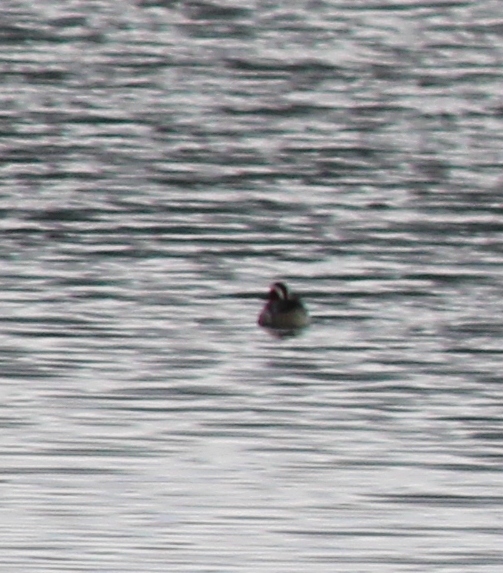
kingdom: Animalia
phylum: Chordata
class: Aves
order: Anseriformes
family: Anatidae
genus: Spatula
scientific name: Spatula querquedula
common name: Garganey
